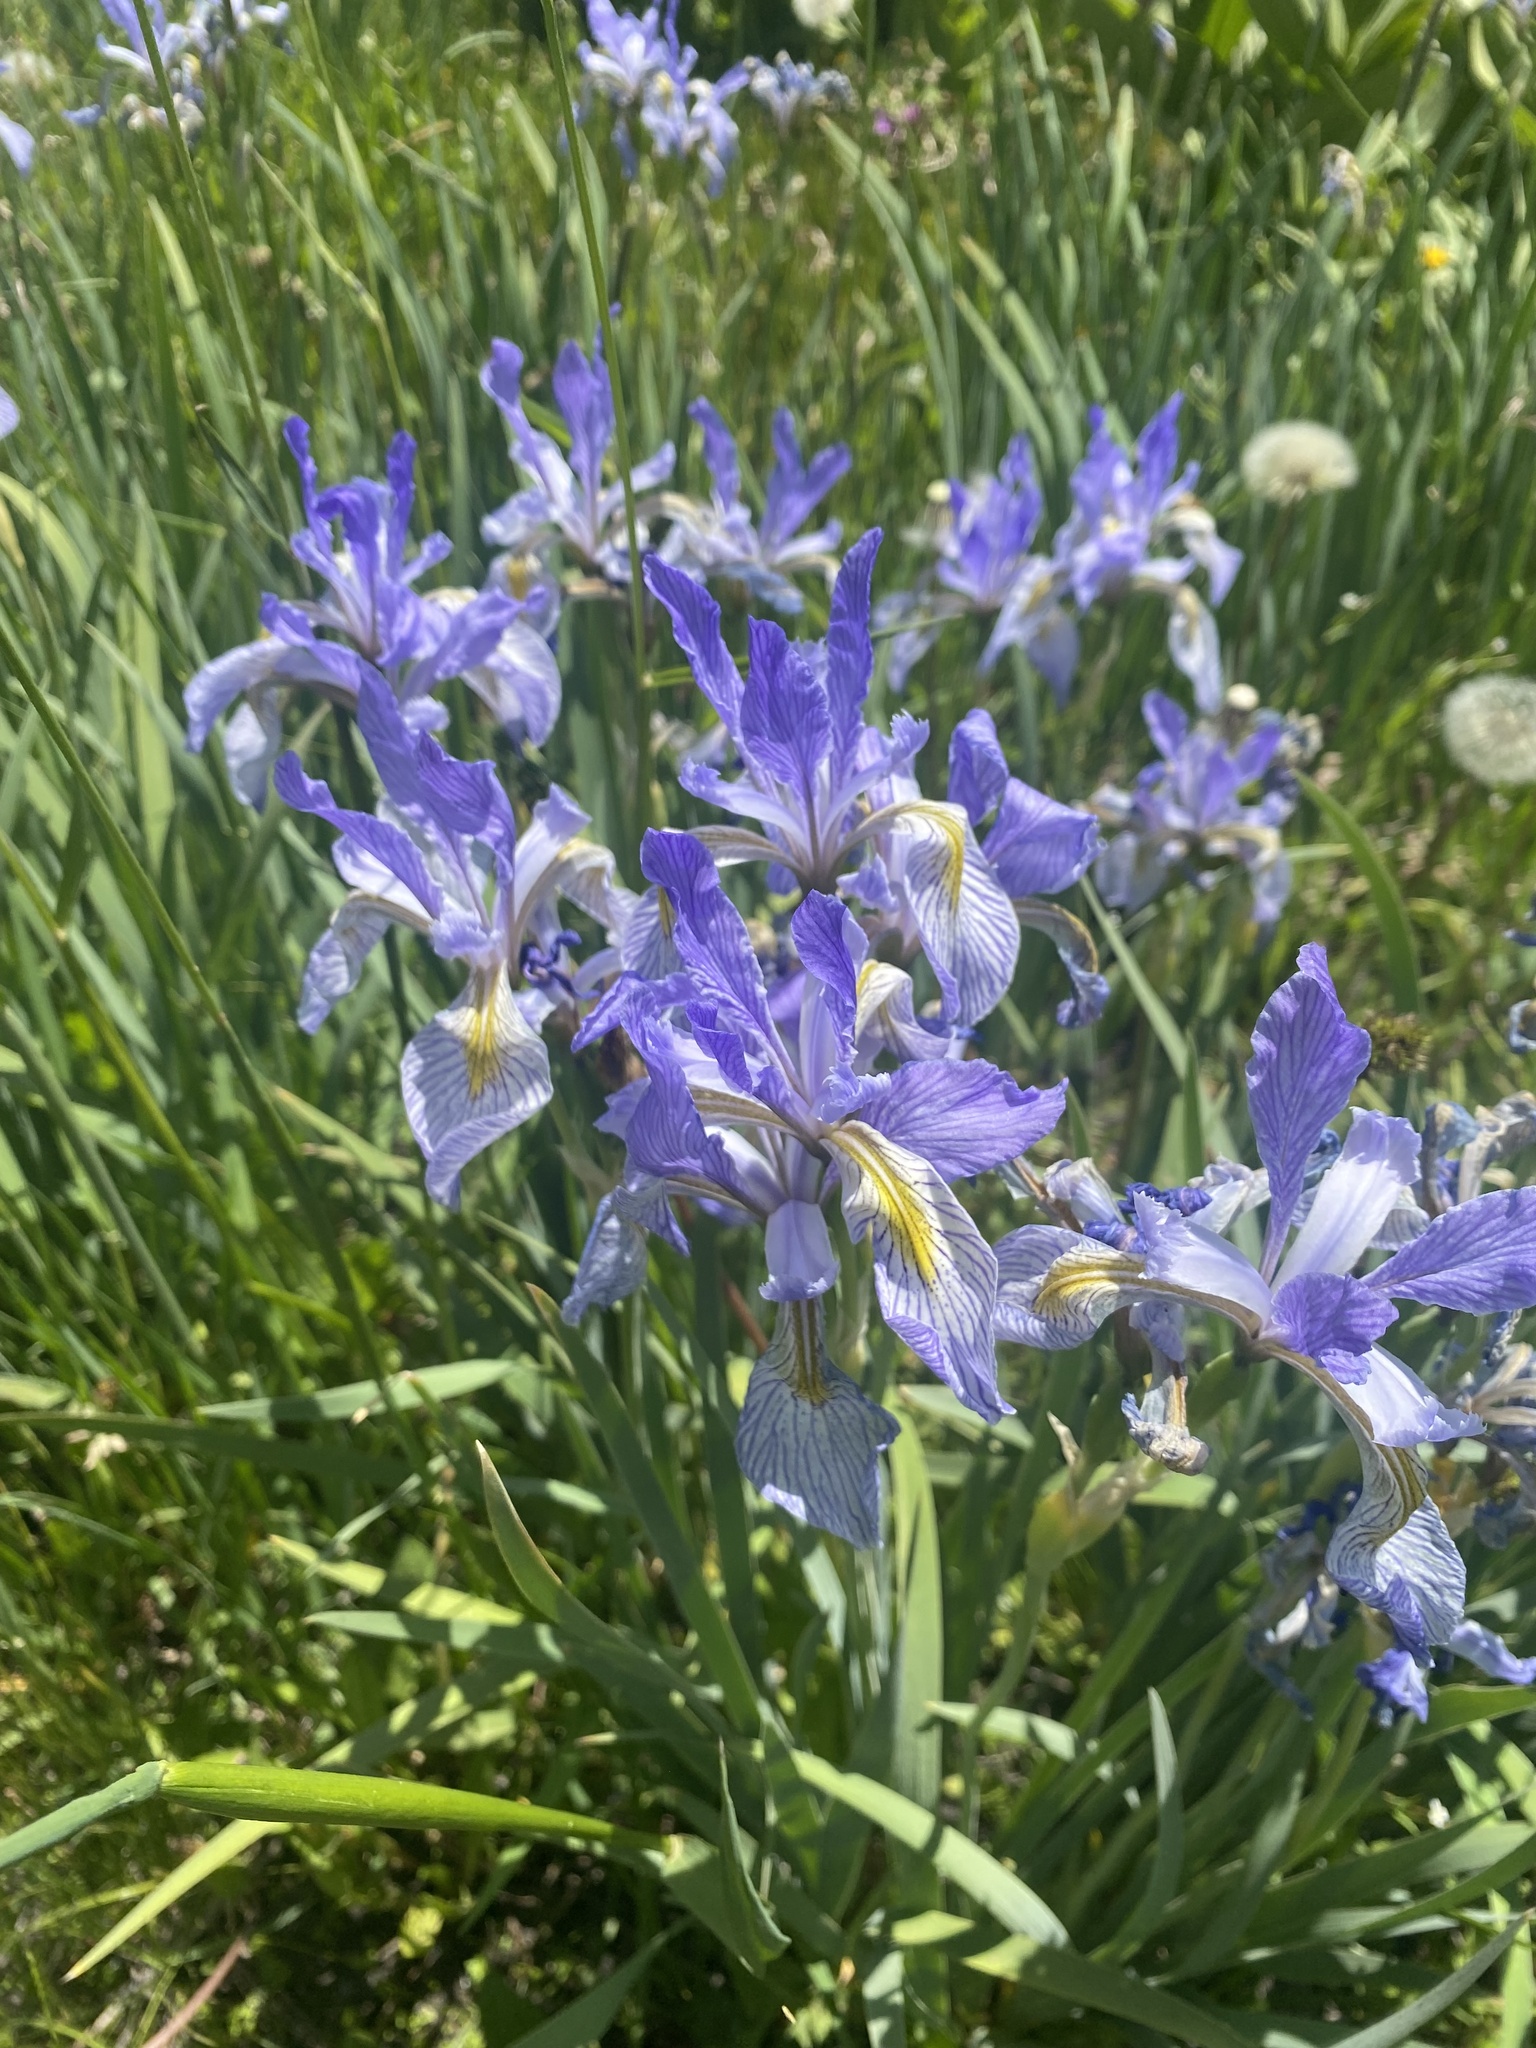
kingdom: Plantae
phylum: Tracheophyta
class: Liliopsida
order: Asparagales
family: Iridaceae
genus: Iris
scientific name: Iris missouriensis
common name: Rocky mountain iris
